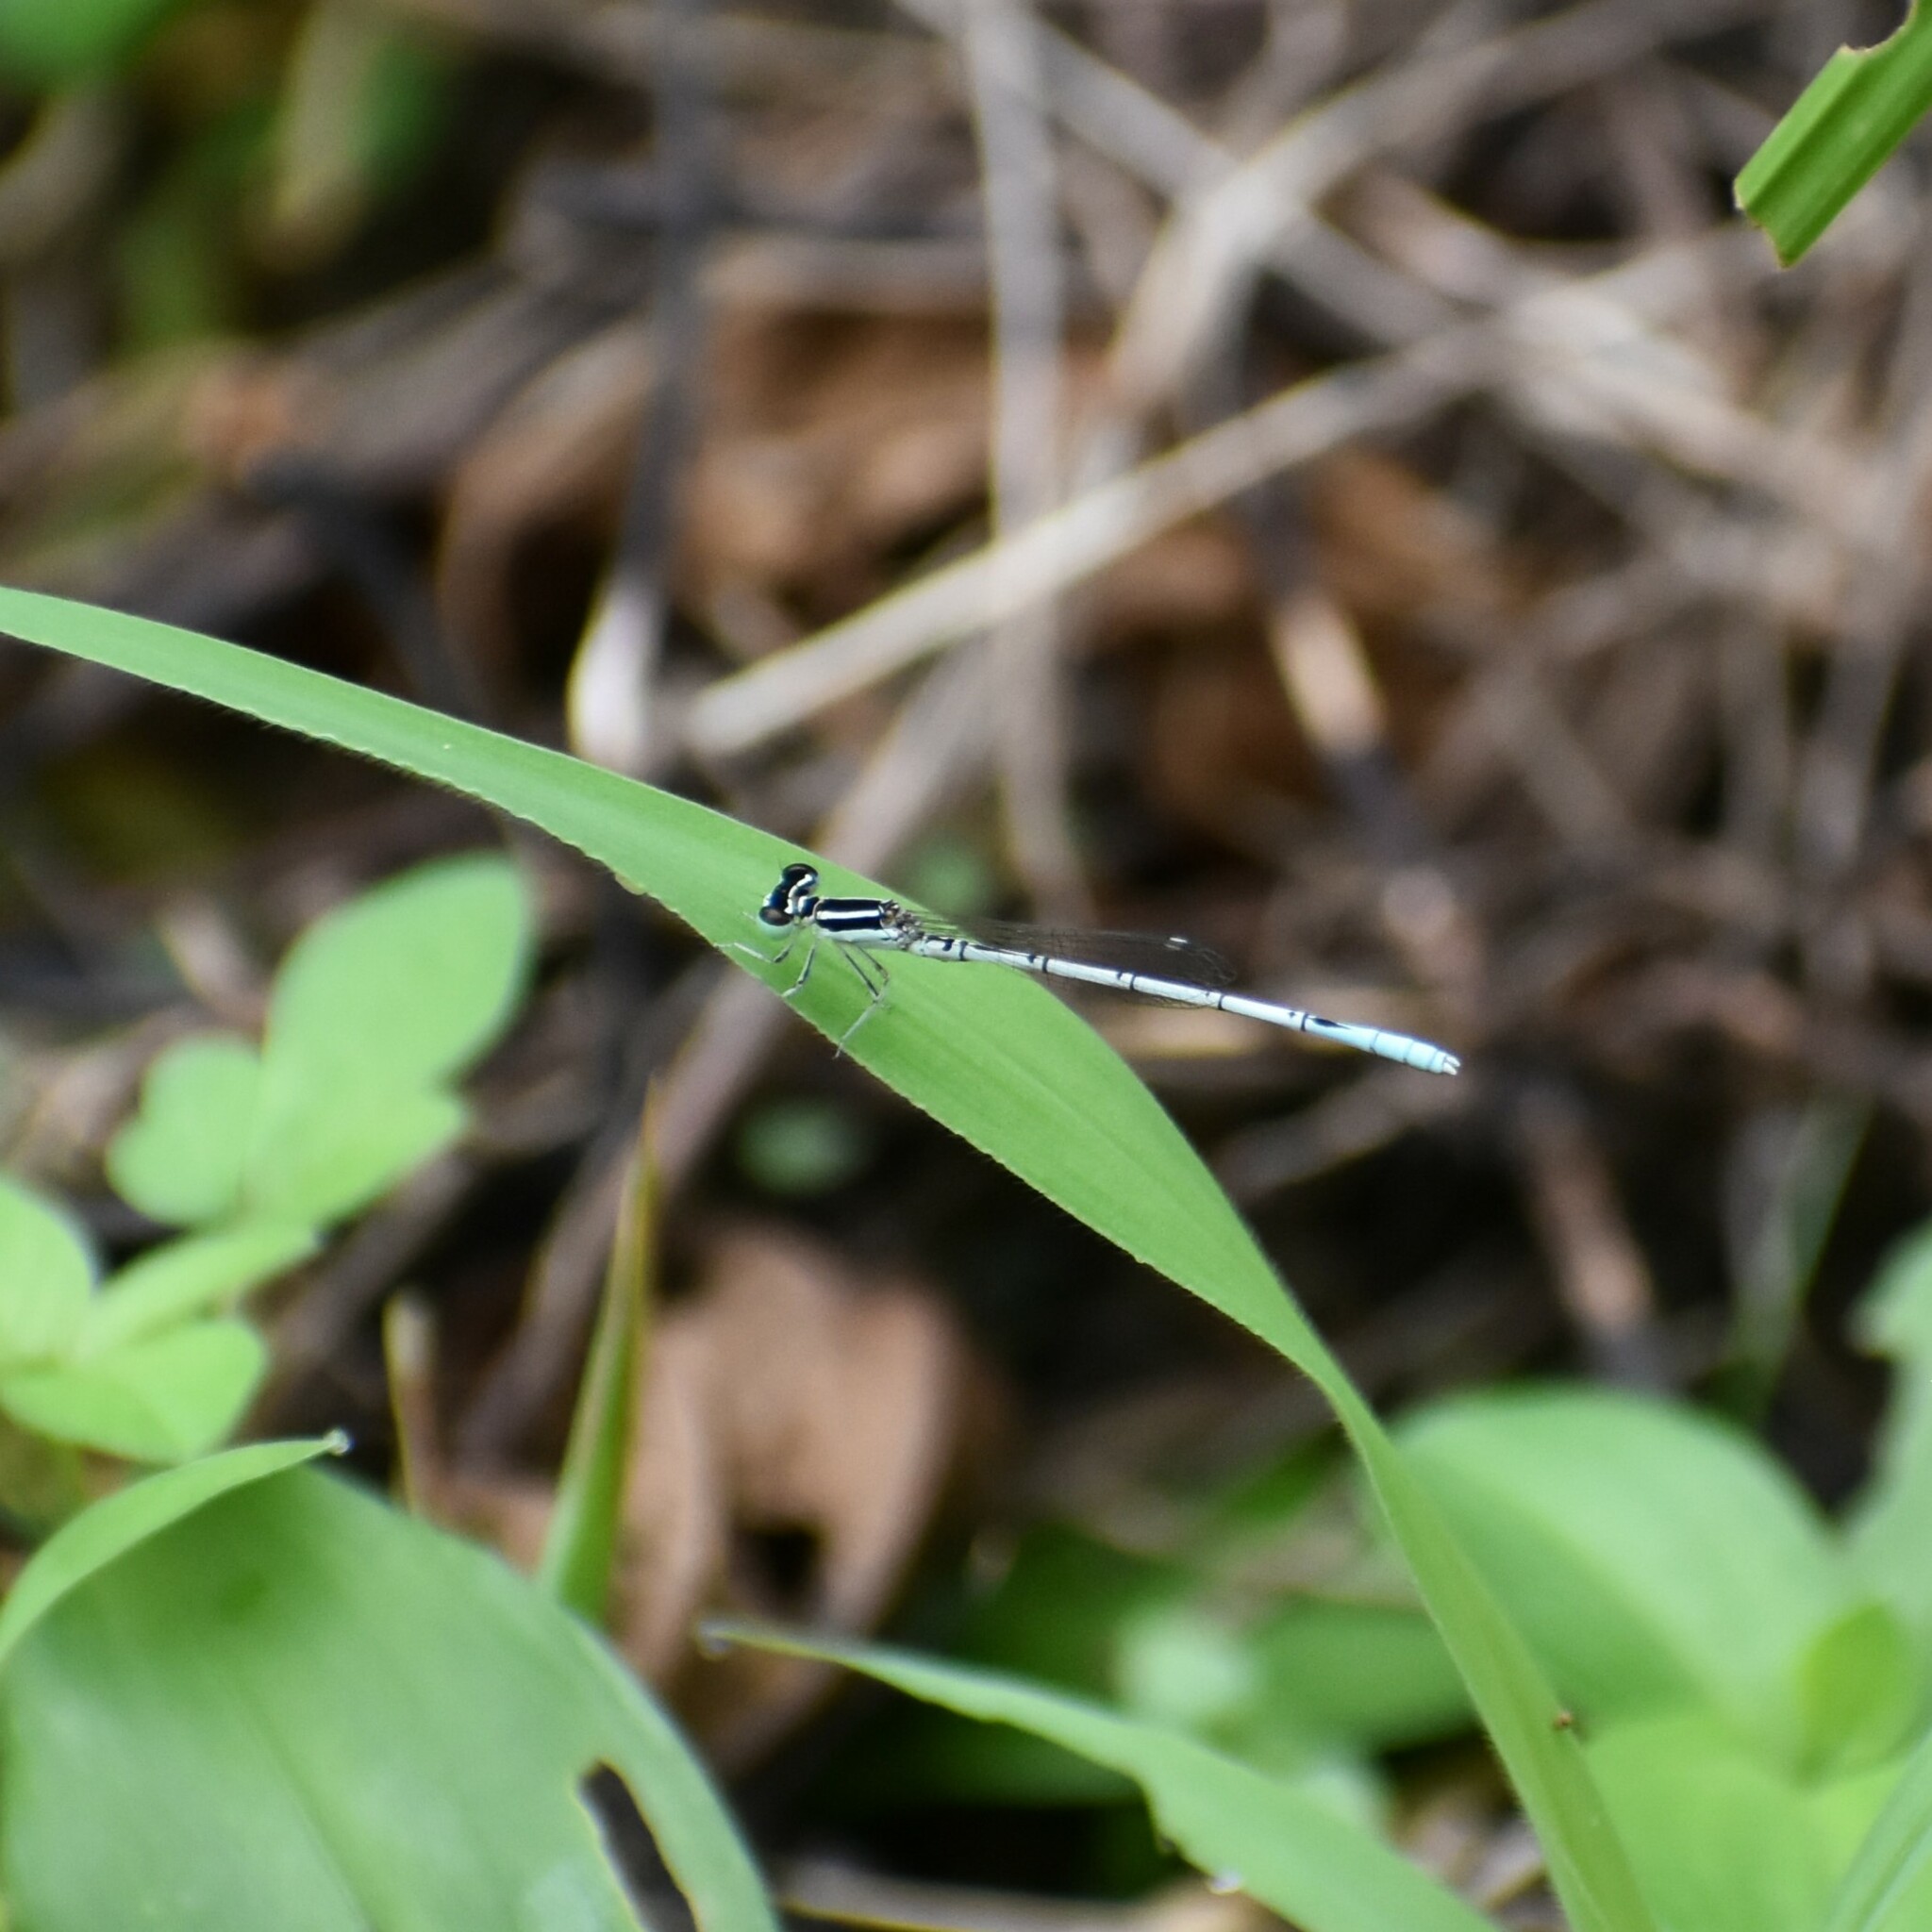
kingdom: Animalia
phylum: Arthropoda
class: Insecta
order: Odonata
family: Coenagrionidae
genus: Agriocnemis
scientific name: Agriocnemis pieris
